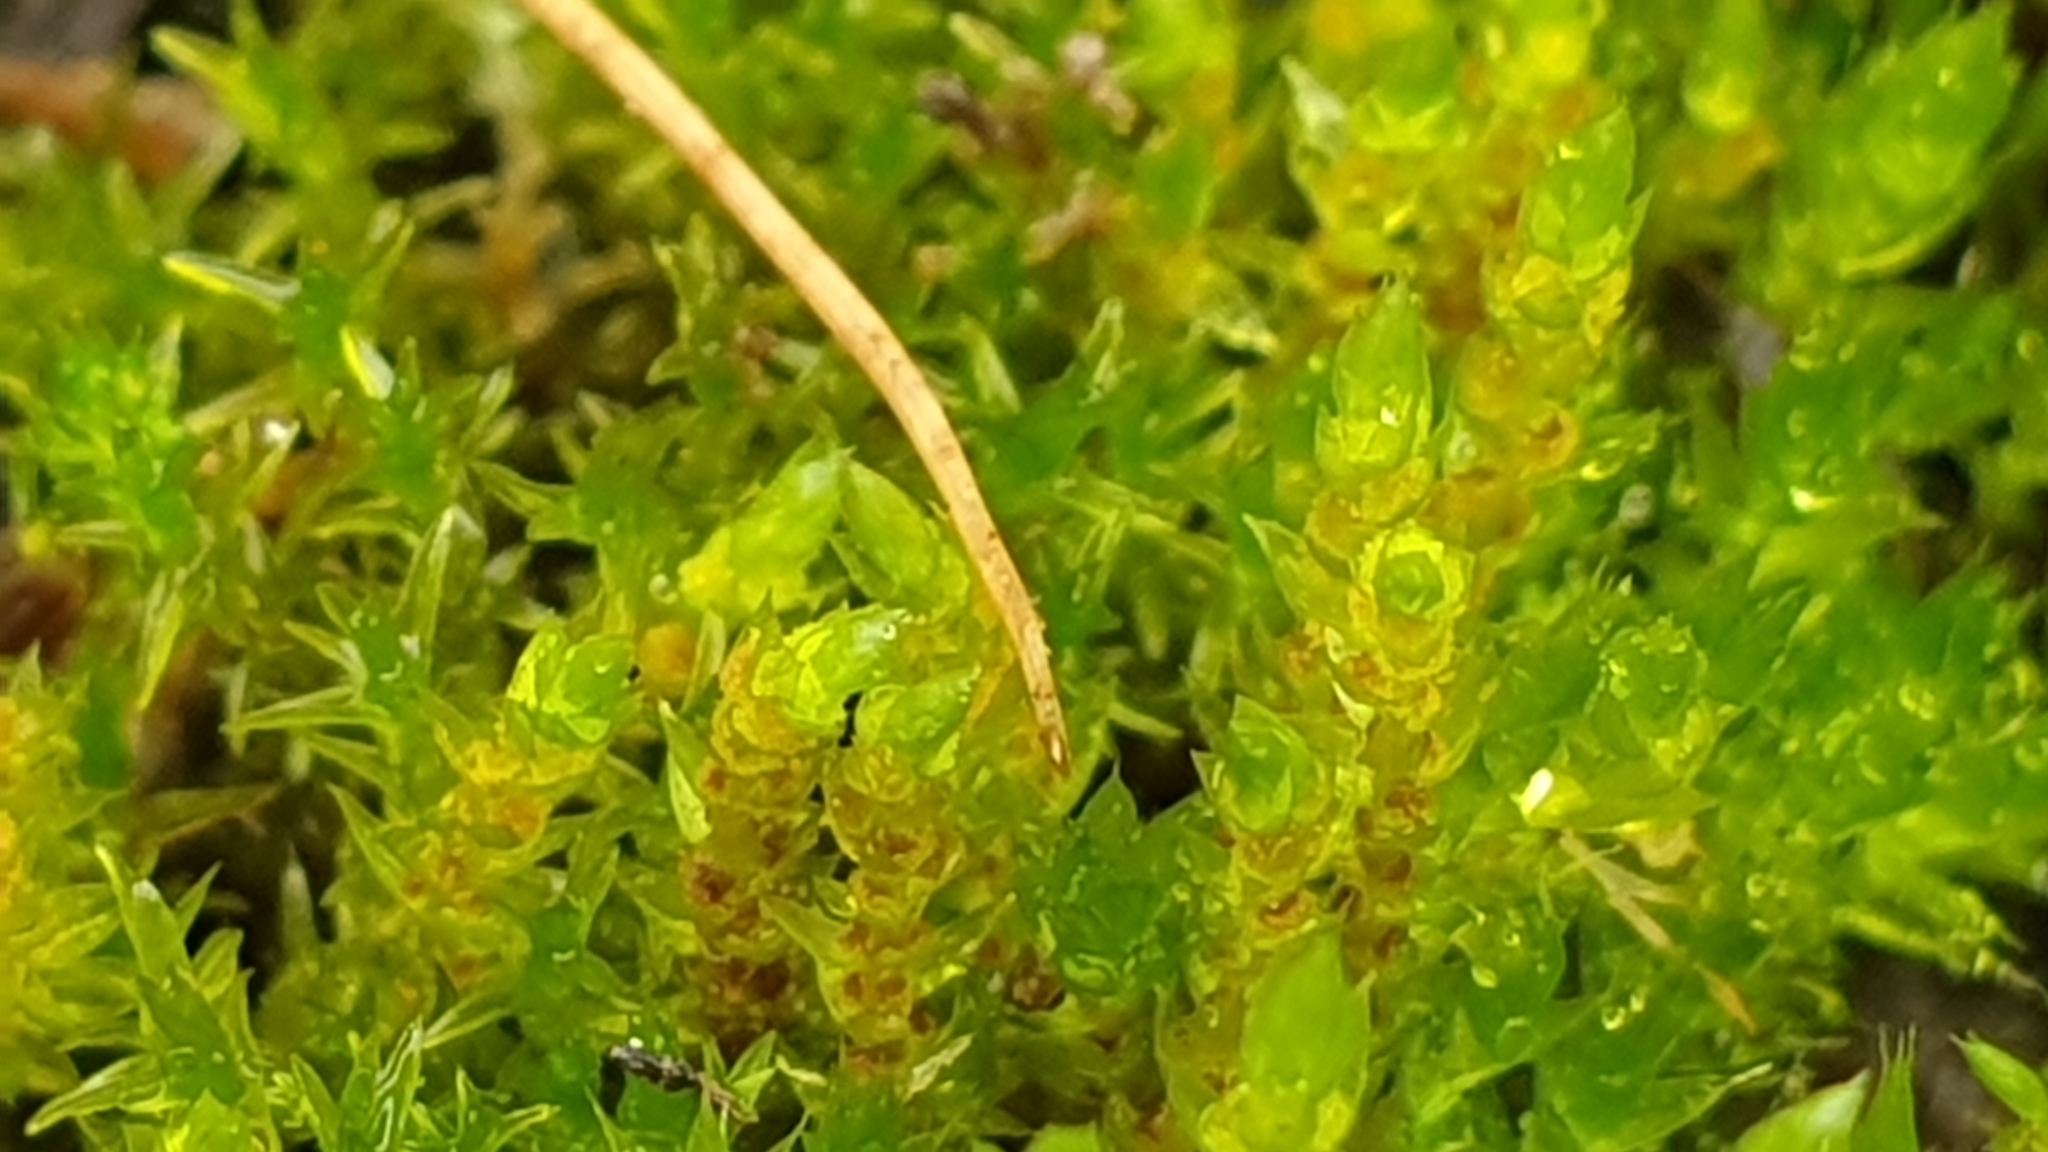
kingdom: Plantae
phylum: Bryophyta
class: Bryopsida
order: Bryales
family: Bryaceae
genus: Imbribryum
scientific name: Imbribryum laevigatum
